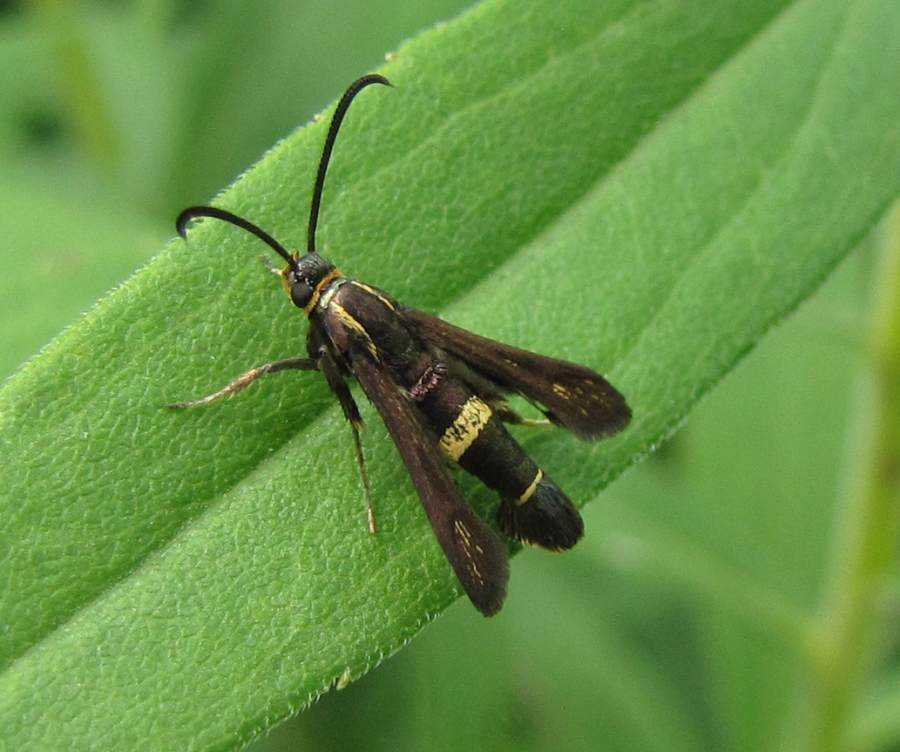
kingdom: Animalia
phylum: Arthropoda
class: Insecta
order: Lepidoptera
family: Sesiidae
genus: Carmenta
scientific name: Carmenta pyralidiformis
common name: Boneset borer moth
